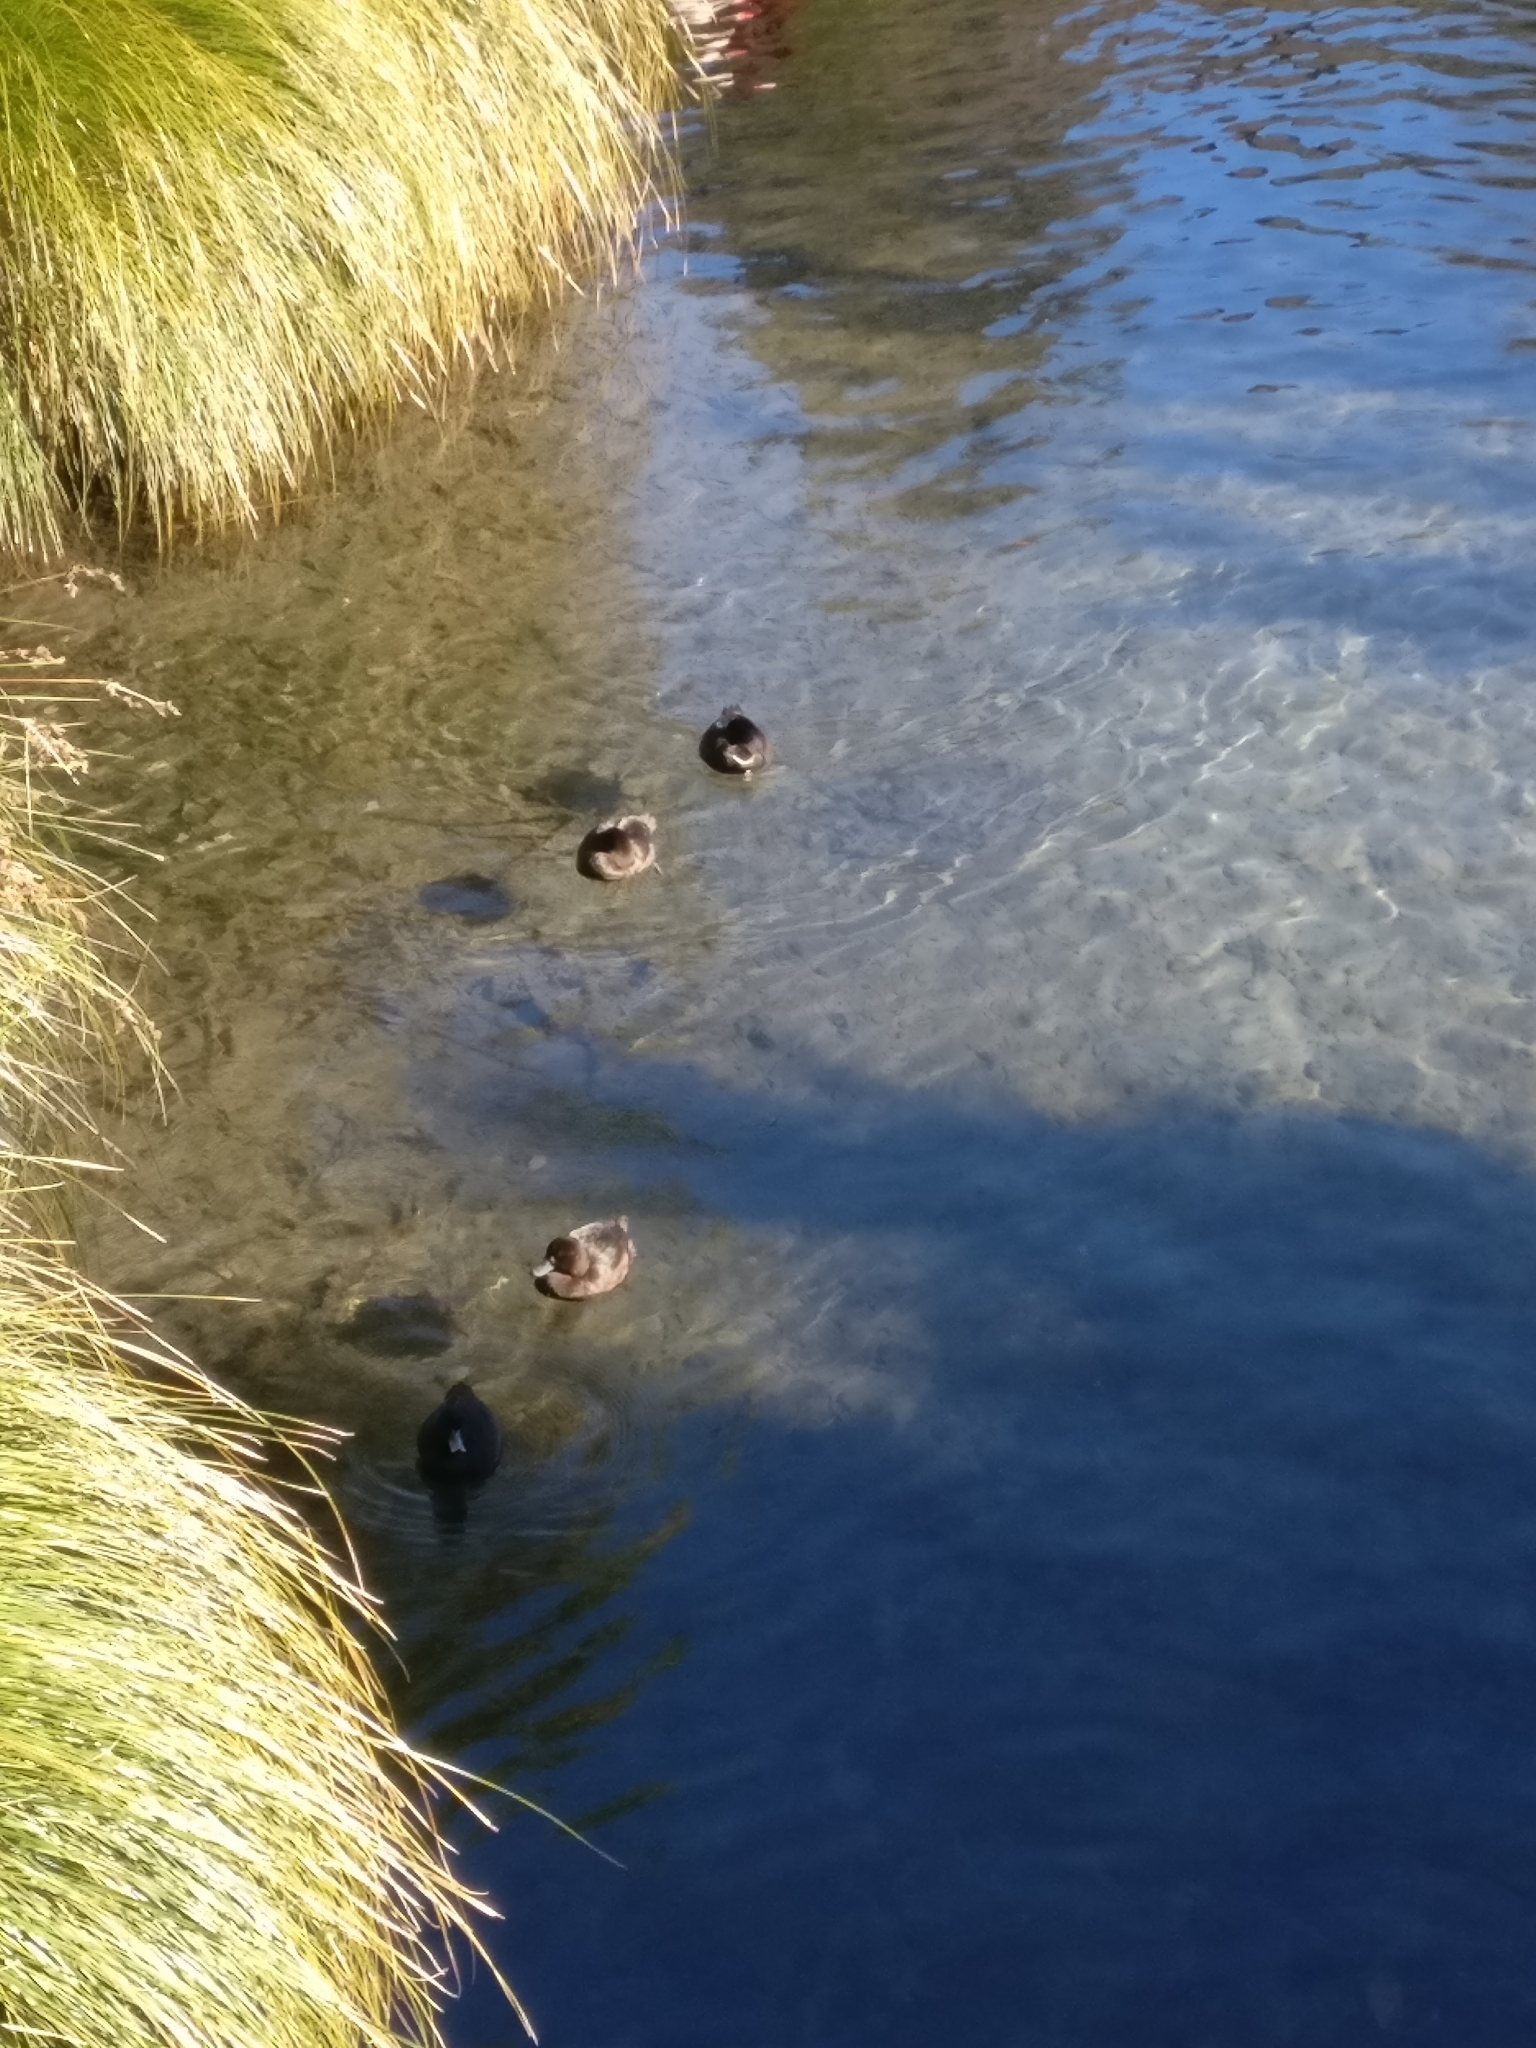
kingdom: Animalia
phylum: Chordata
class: Aves
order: Anseriformes
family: Anatidae
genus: Aythya
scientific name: Aythya novaeseelandiae
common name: New zealand scaup
